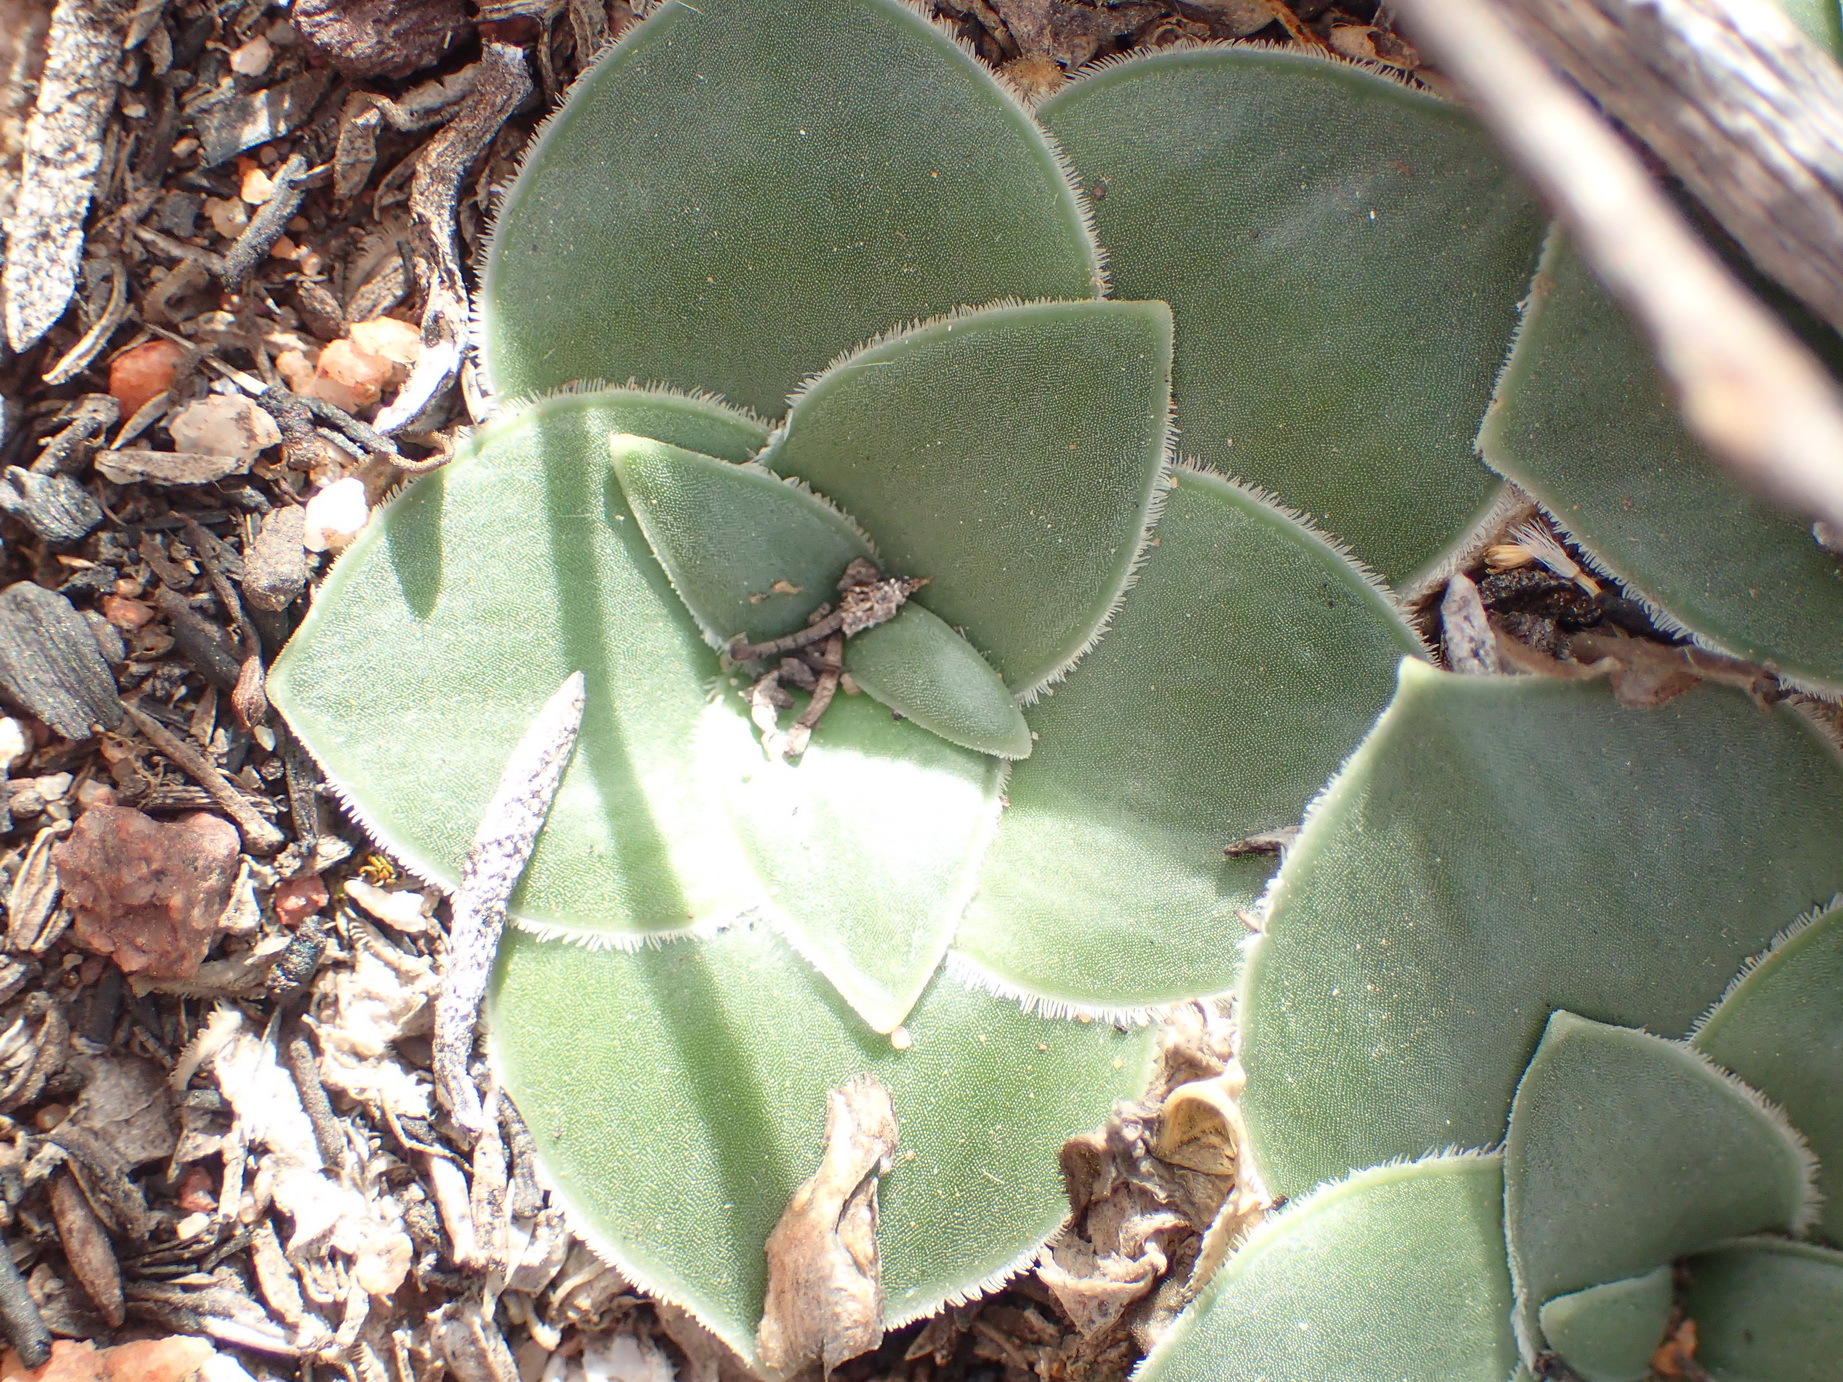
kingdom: Plantae
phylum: Tracheophyta
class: Liliopsida
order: Asparagales
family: Asparagaceae
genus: Drimia
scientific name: Drimia ciliata
